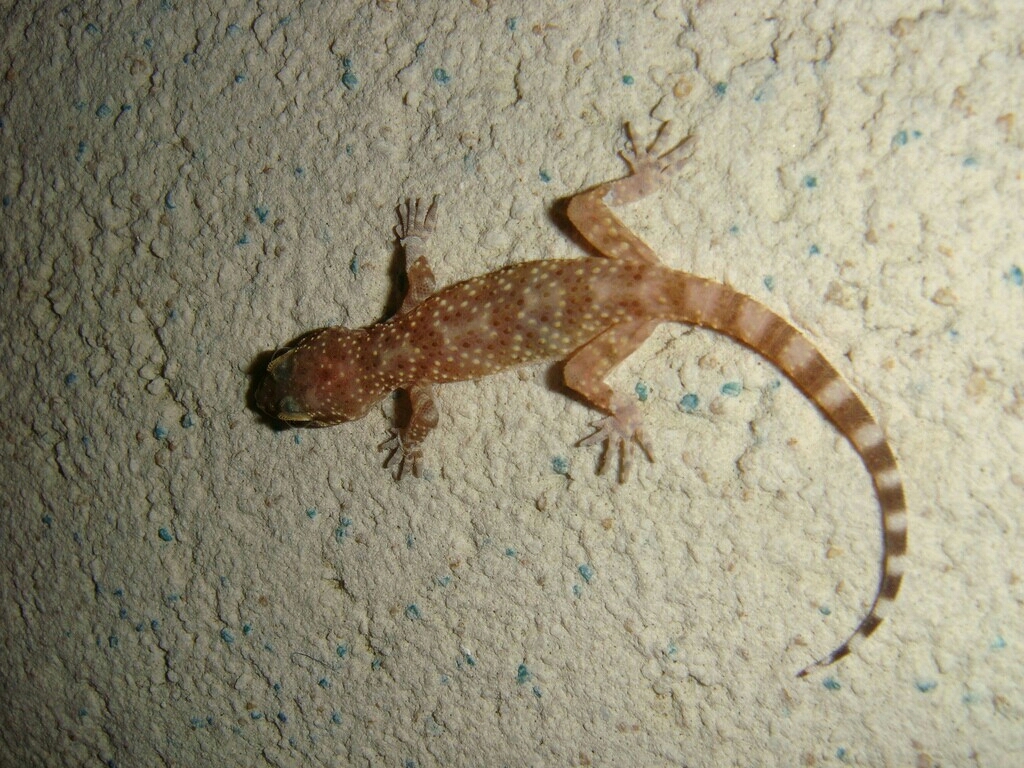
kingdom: Animalia
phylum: Chordata
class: Squamata
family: Gekkonidae
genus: Hemidactylus
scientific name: Hemidactylus turcicus
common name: Turkish gecko
